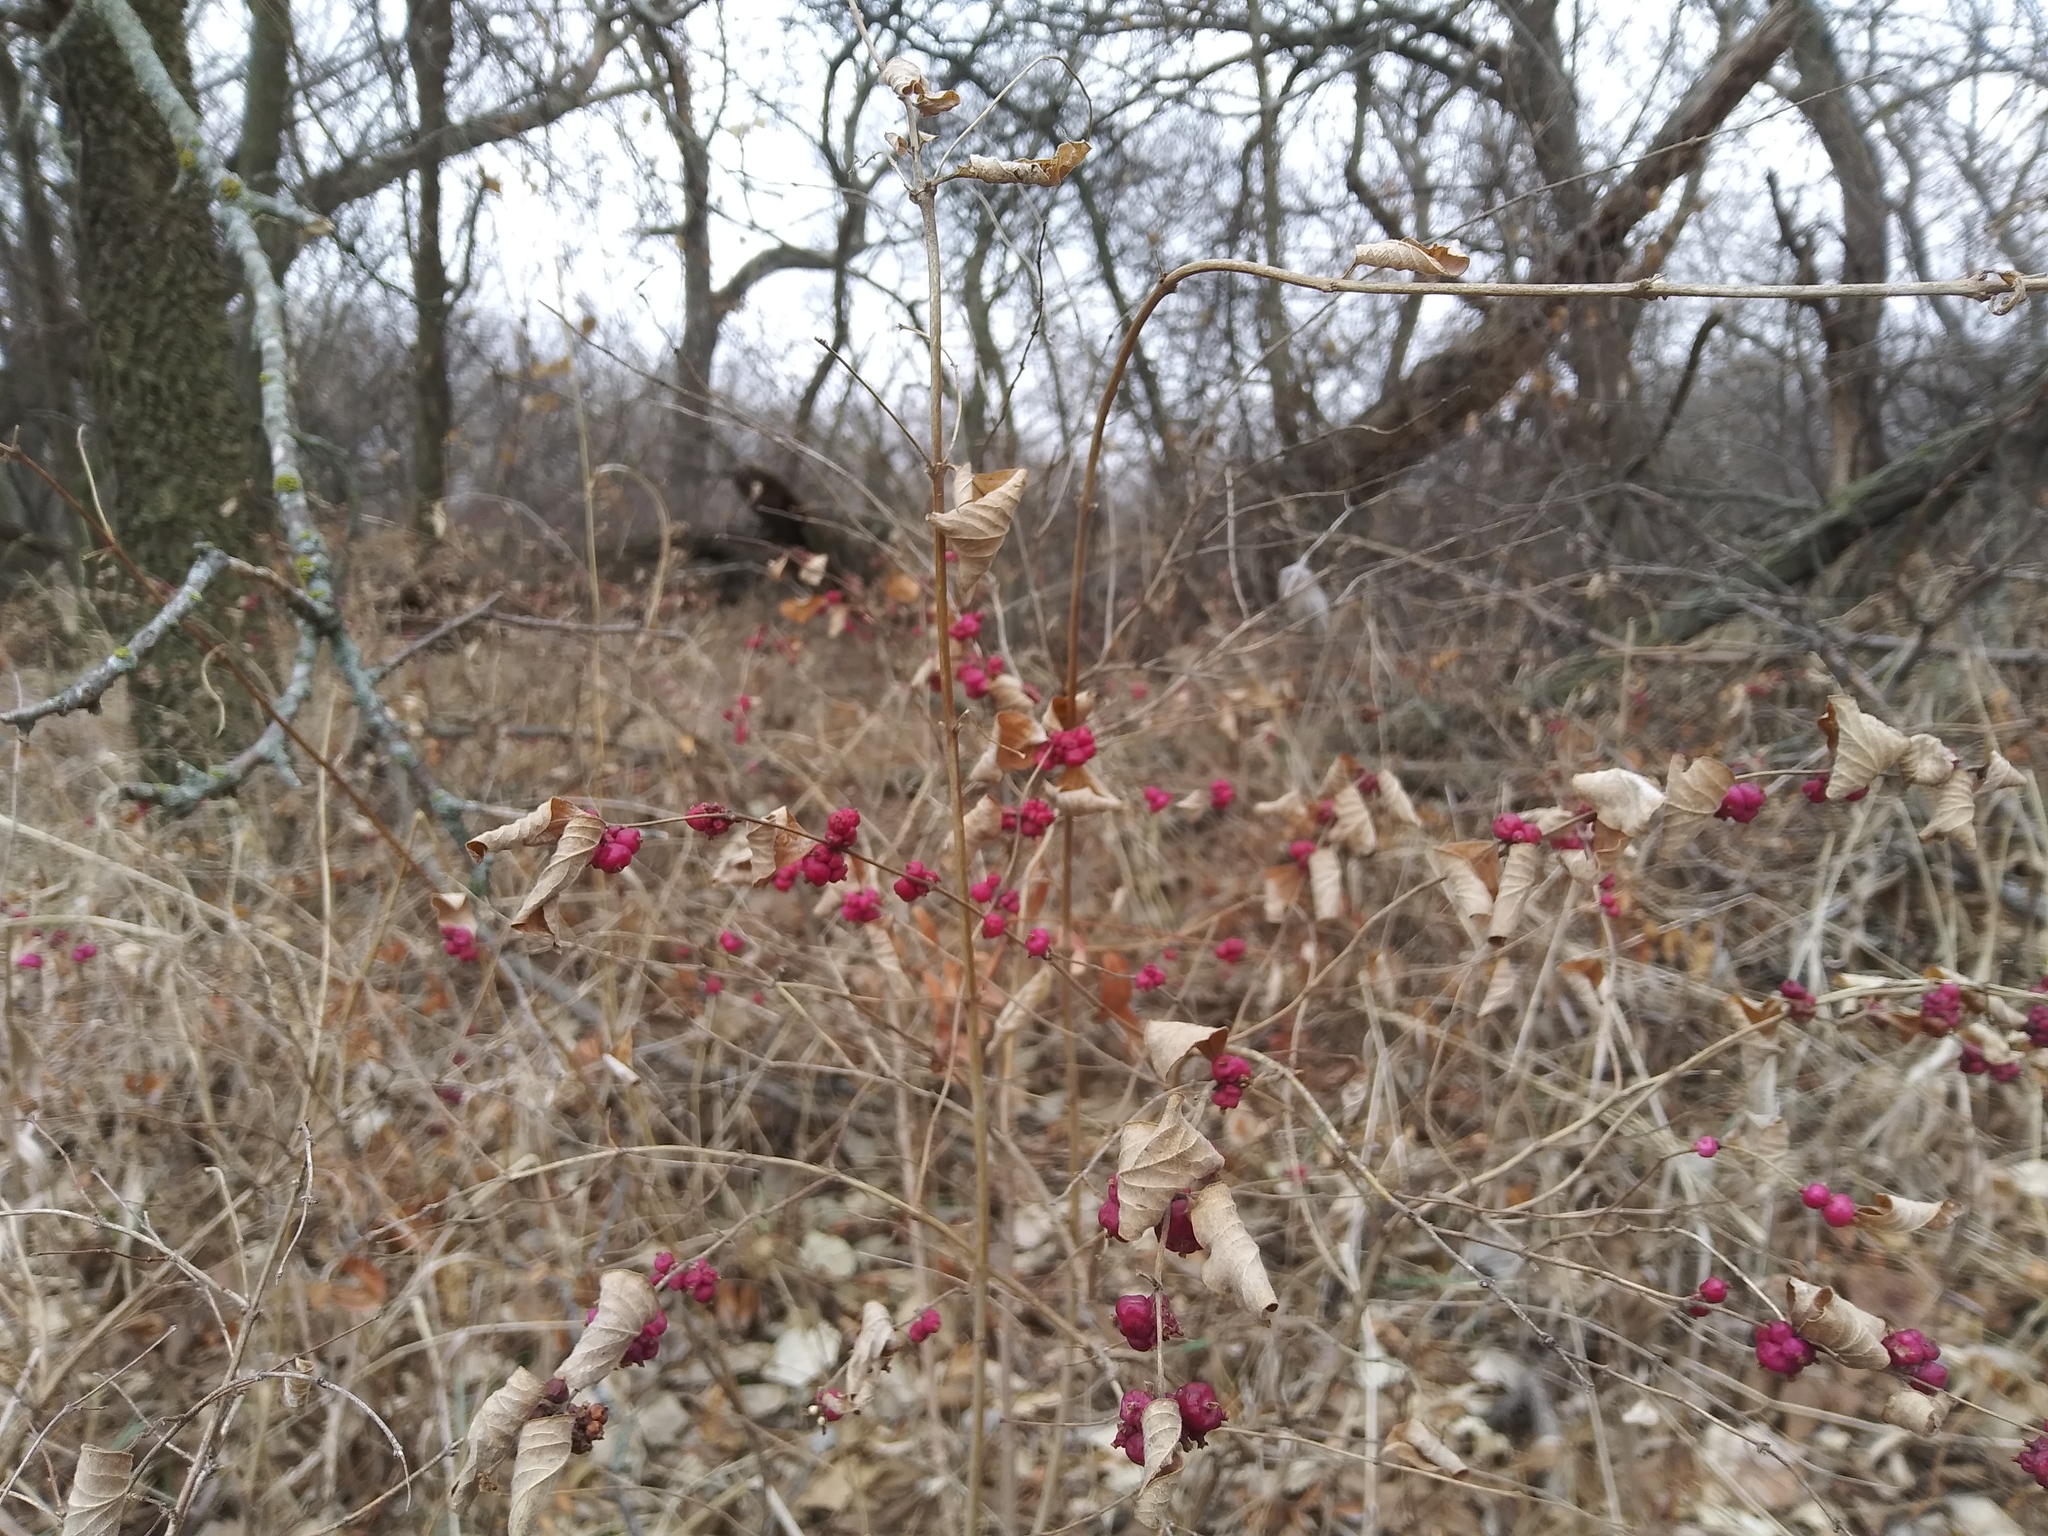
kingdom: Plantae
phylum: Tracheophyta
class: Magnoliopsida
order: Dipsacales
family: Caprifoliaceae
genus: Symphoricarpos
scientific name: Symphoricarpos orbiculatus
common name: Coralberry
